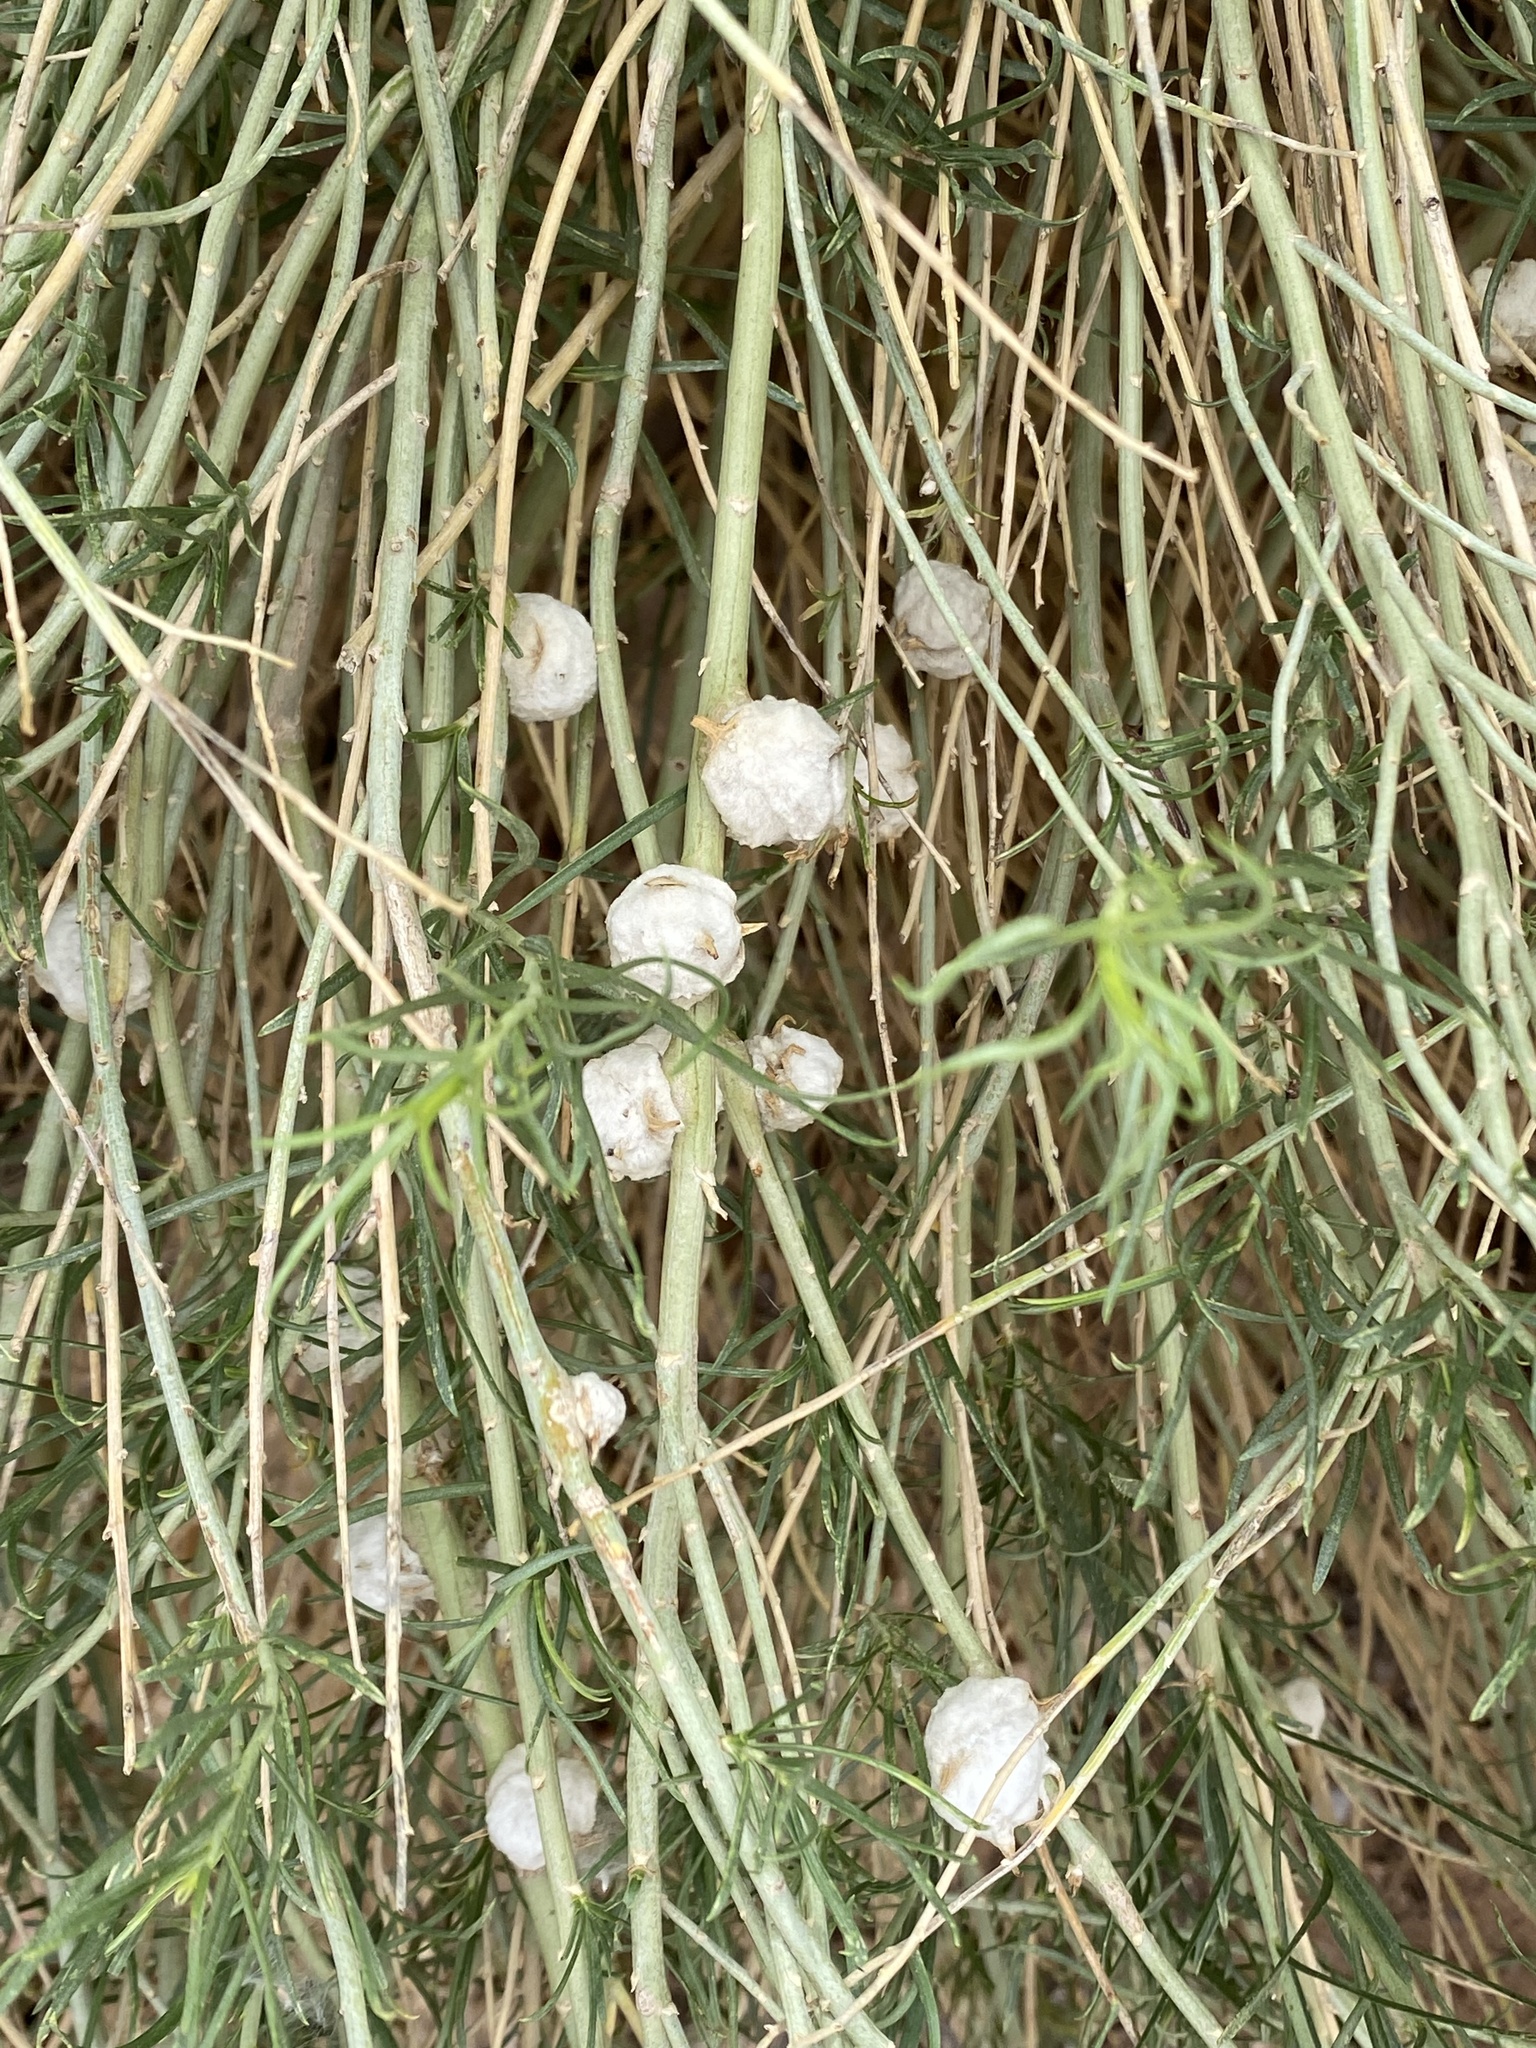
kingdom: Animalia
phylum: Arthropoda
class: Insecta
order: Diptera
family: Tephritidae
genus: Aciurina
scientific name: Aciurina bigeloviae
